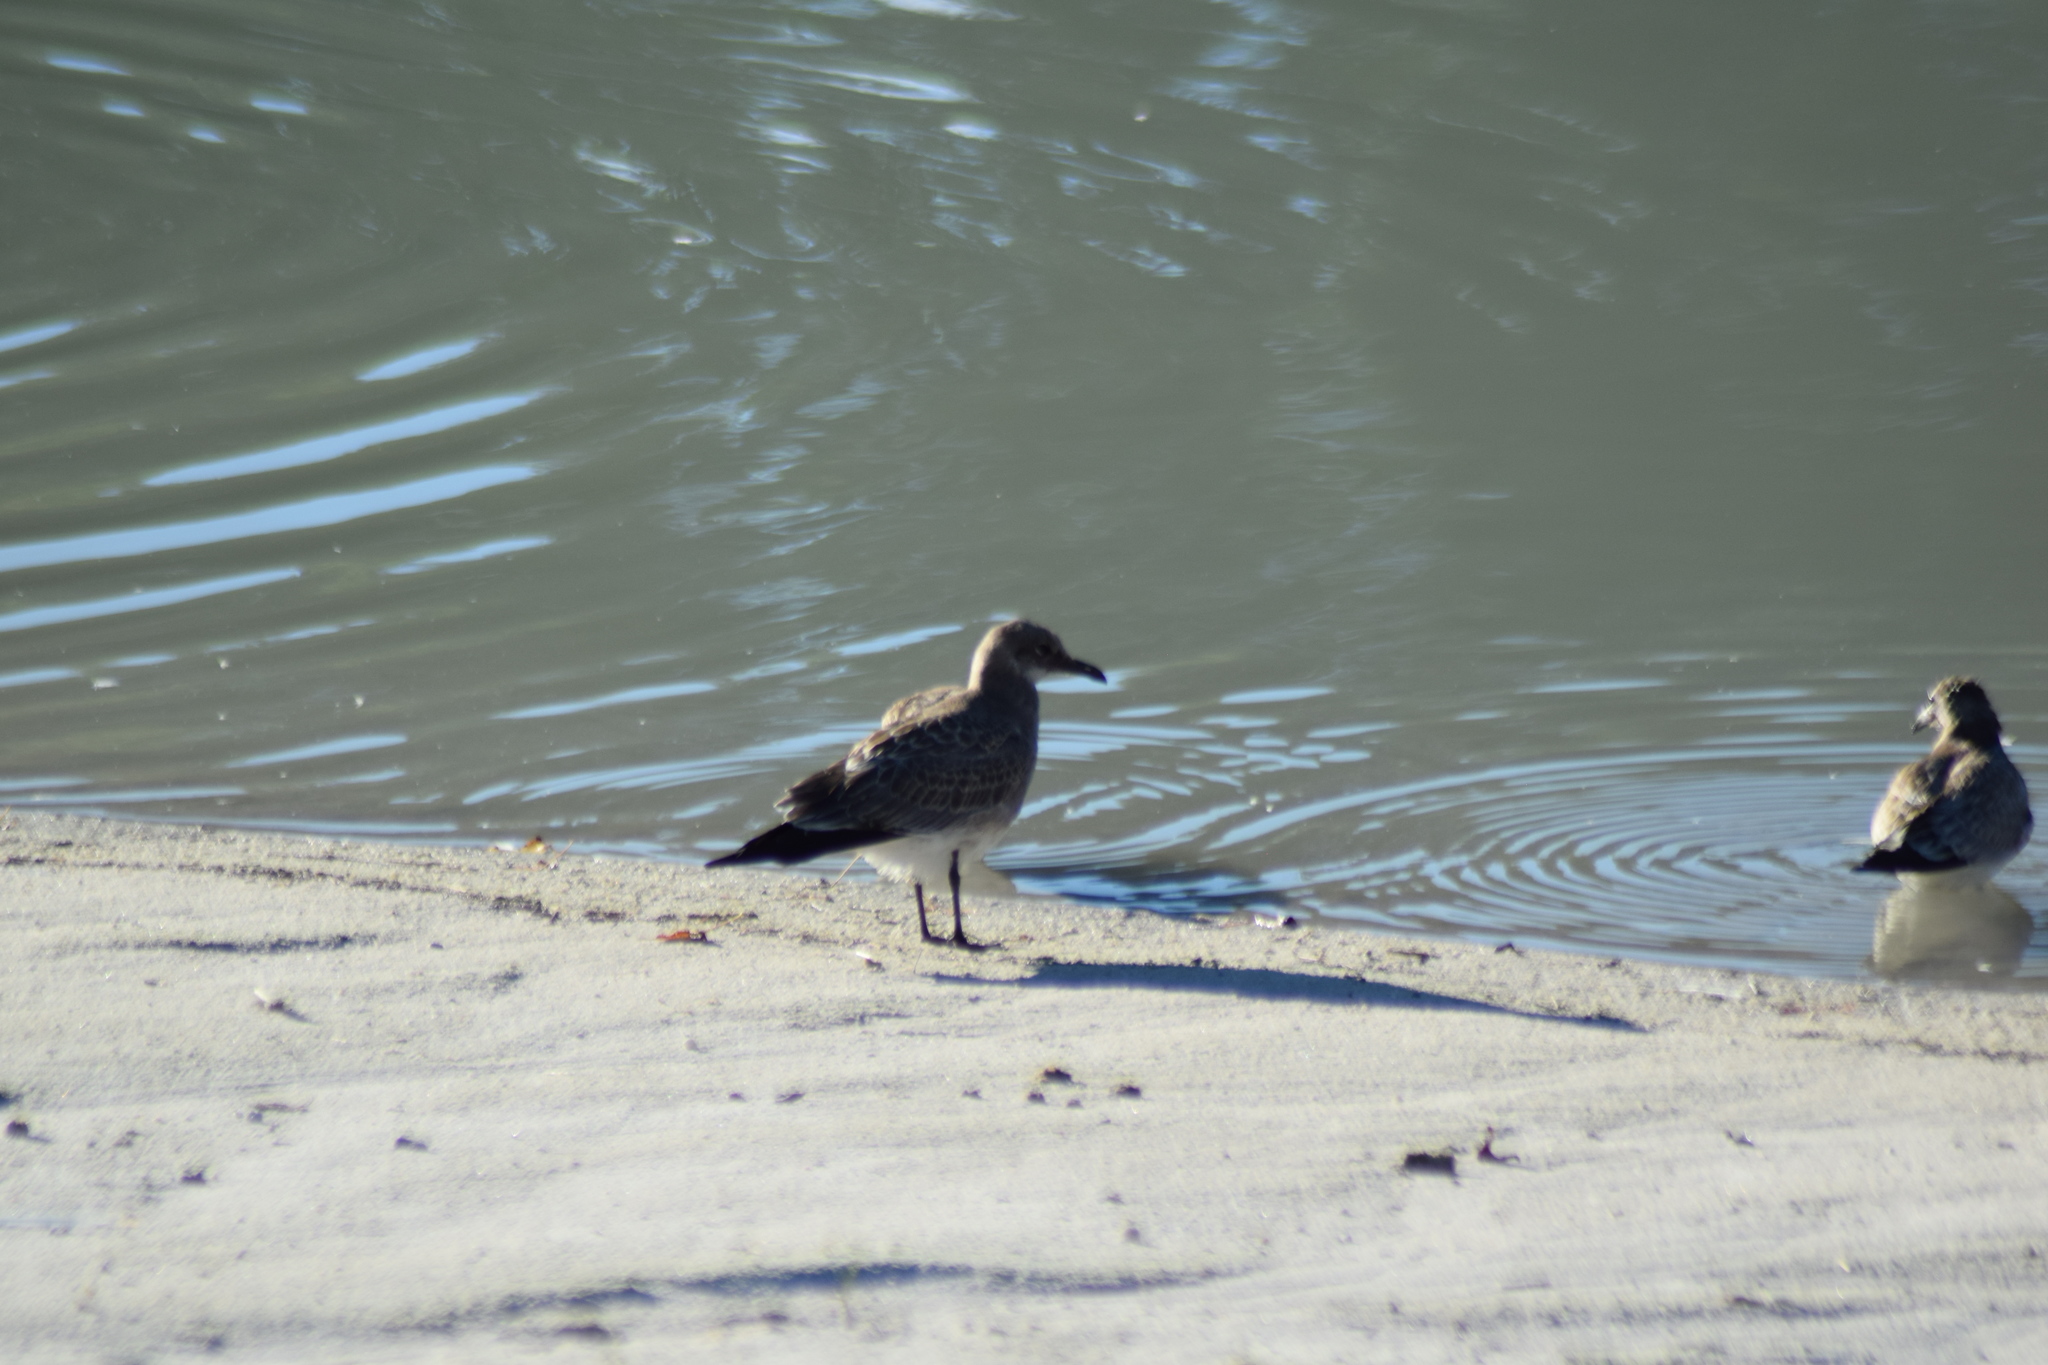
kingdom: Animalia
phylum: Chordata
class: Aves
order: Charadriiformes
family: Laridae
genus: Leucophaeus
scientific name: Leucophaeus atricilla
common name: Laughing gull
